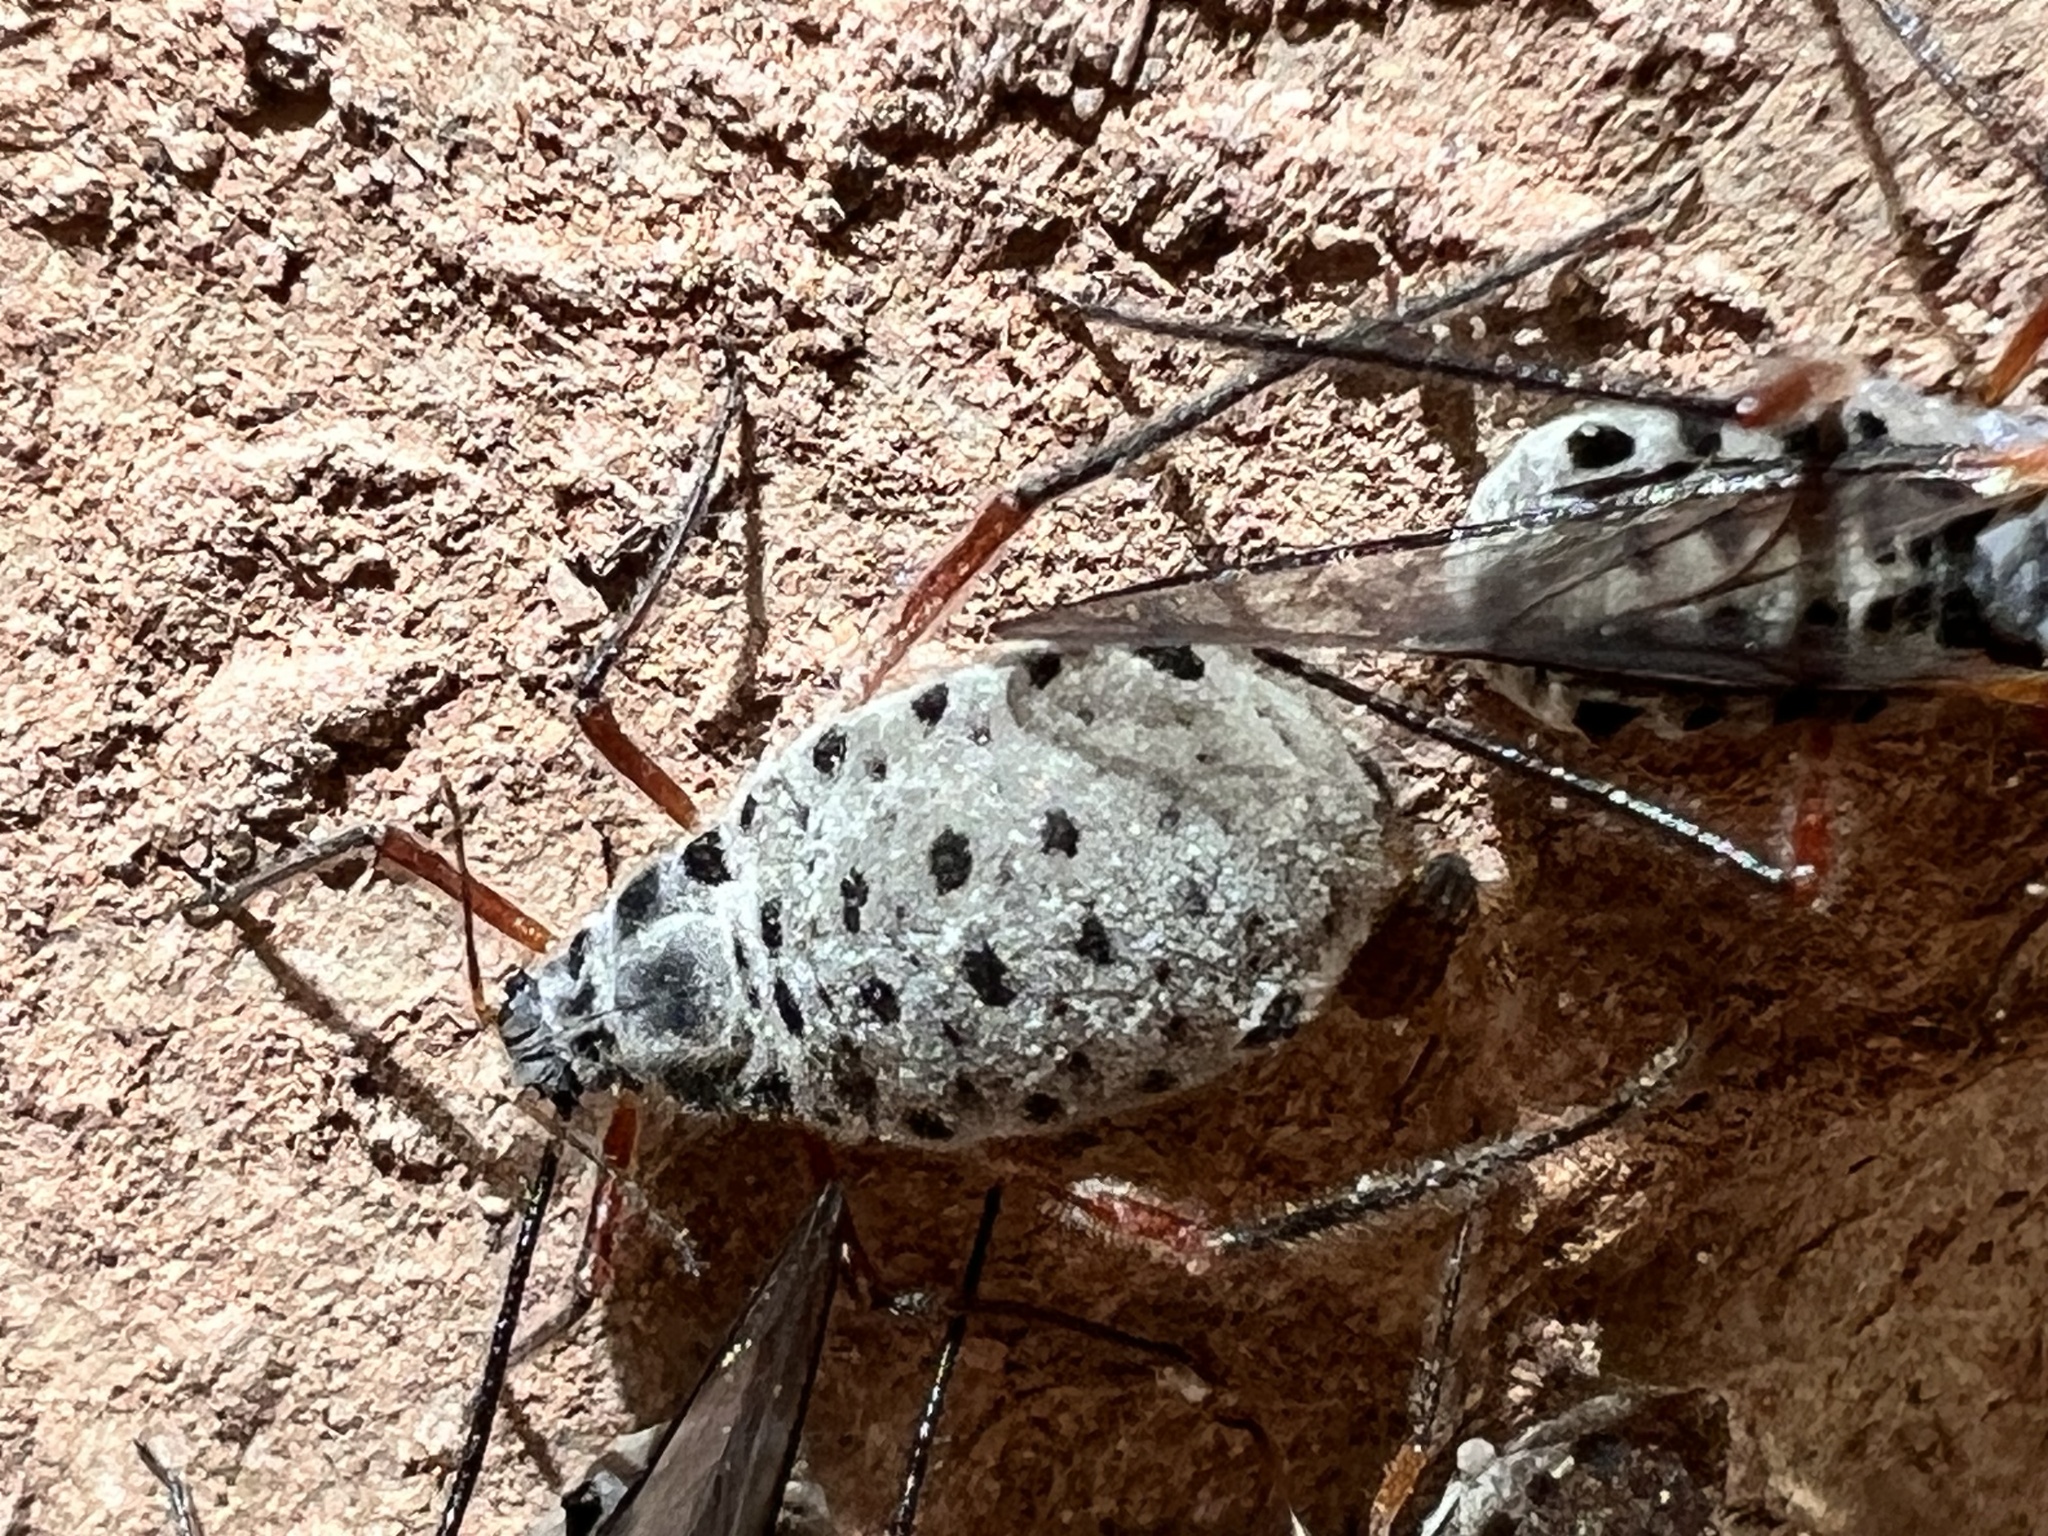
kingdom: Animalia
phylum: Arthropoda
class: Insecta
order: Hemiptera
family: Aphididae
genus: Longistigma
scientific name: Longistigma caryae
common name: Giant bark aphid
